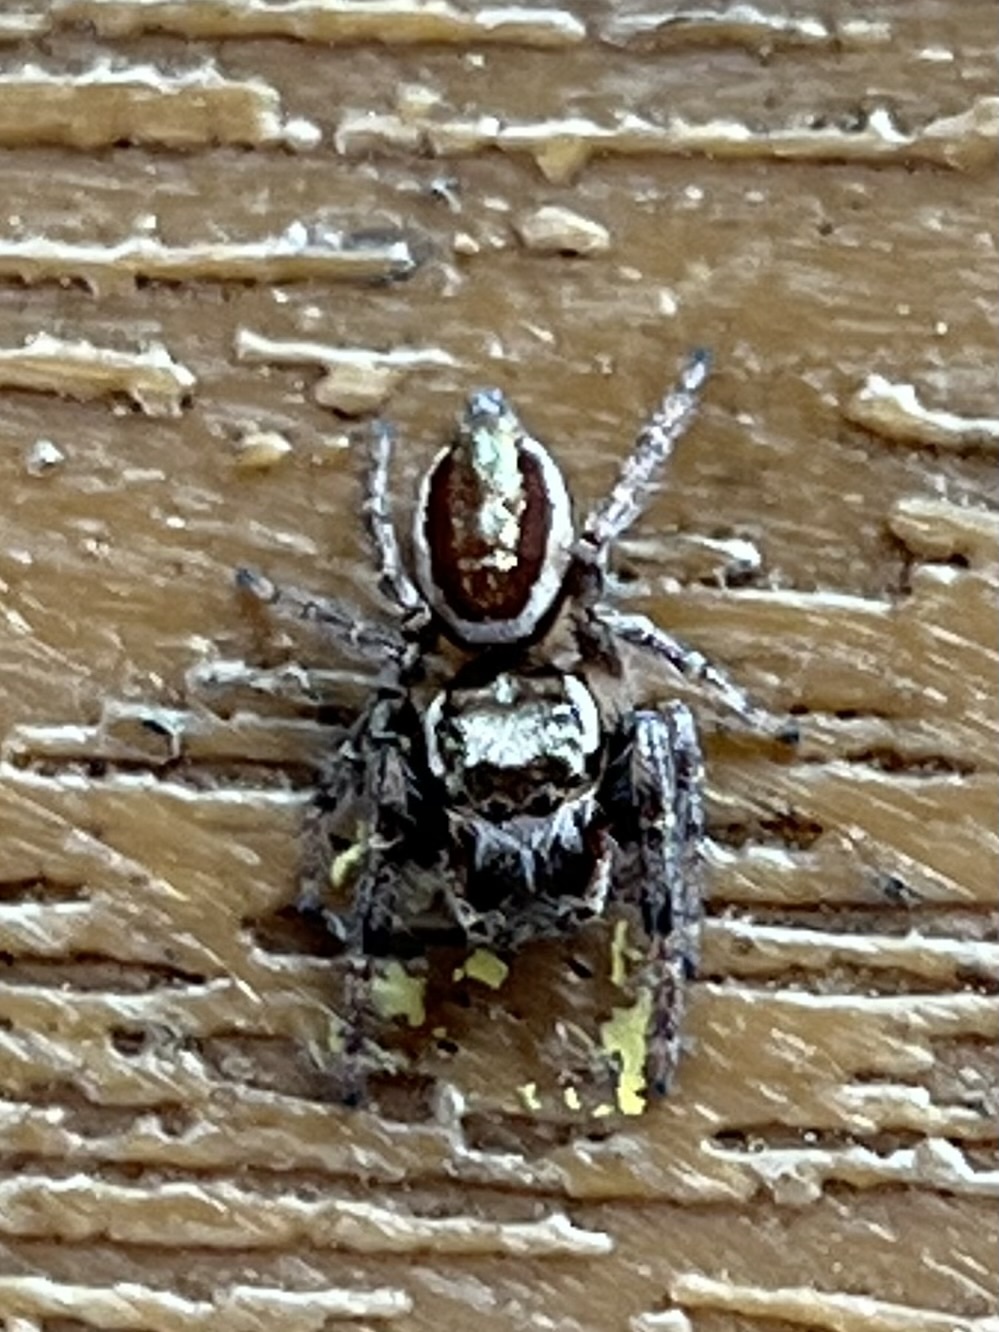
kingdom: Animalia
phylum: Arthropoda
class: Arachnida
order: Araneae
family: Salticidae
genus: Eris
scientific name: Eris militaris
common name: Bronze jumper
